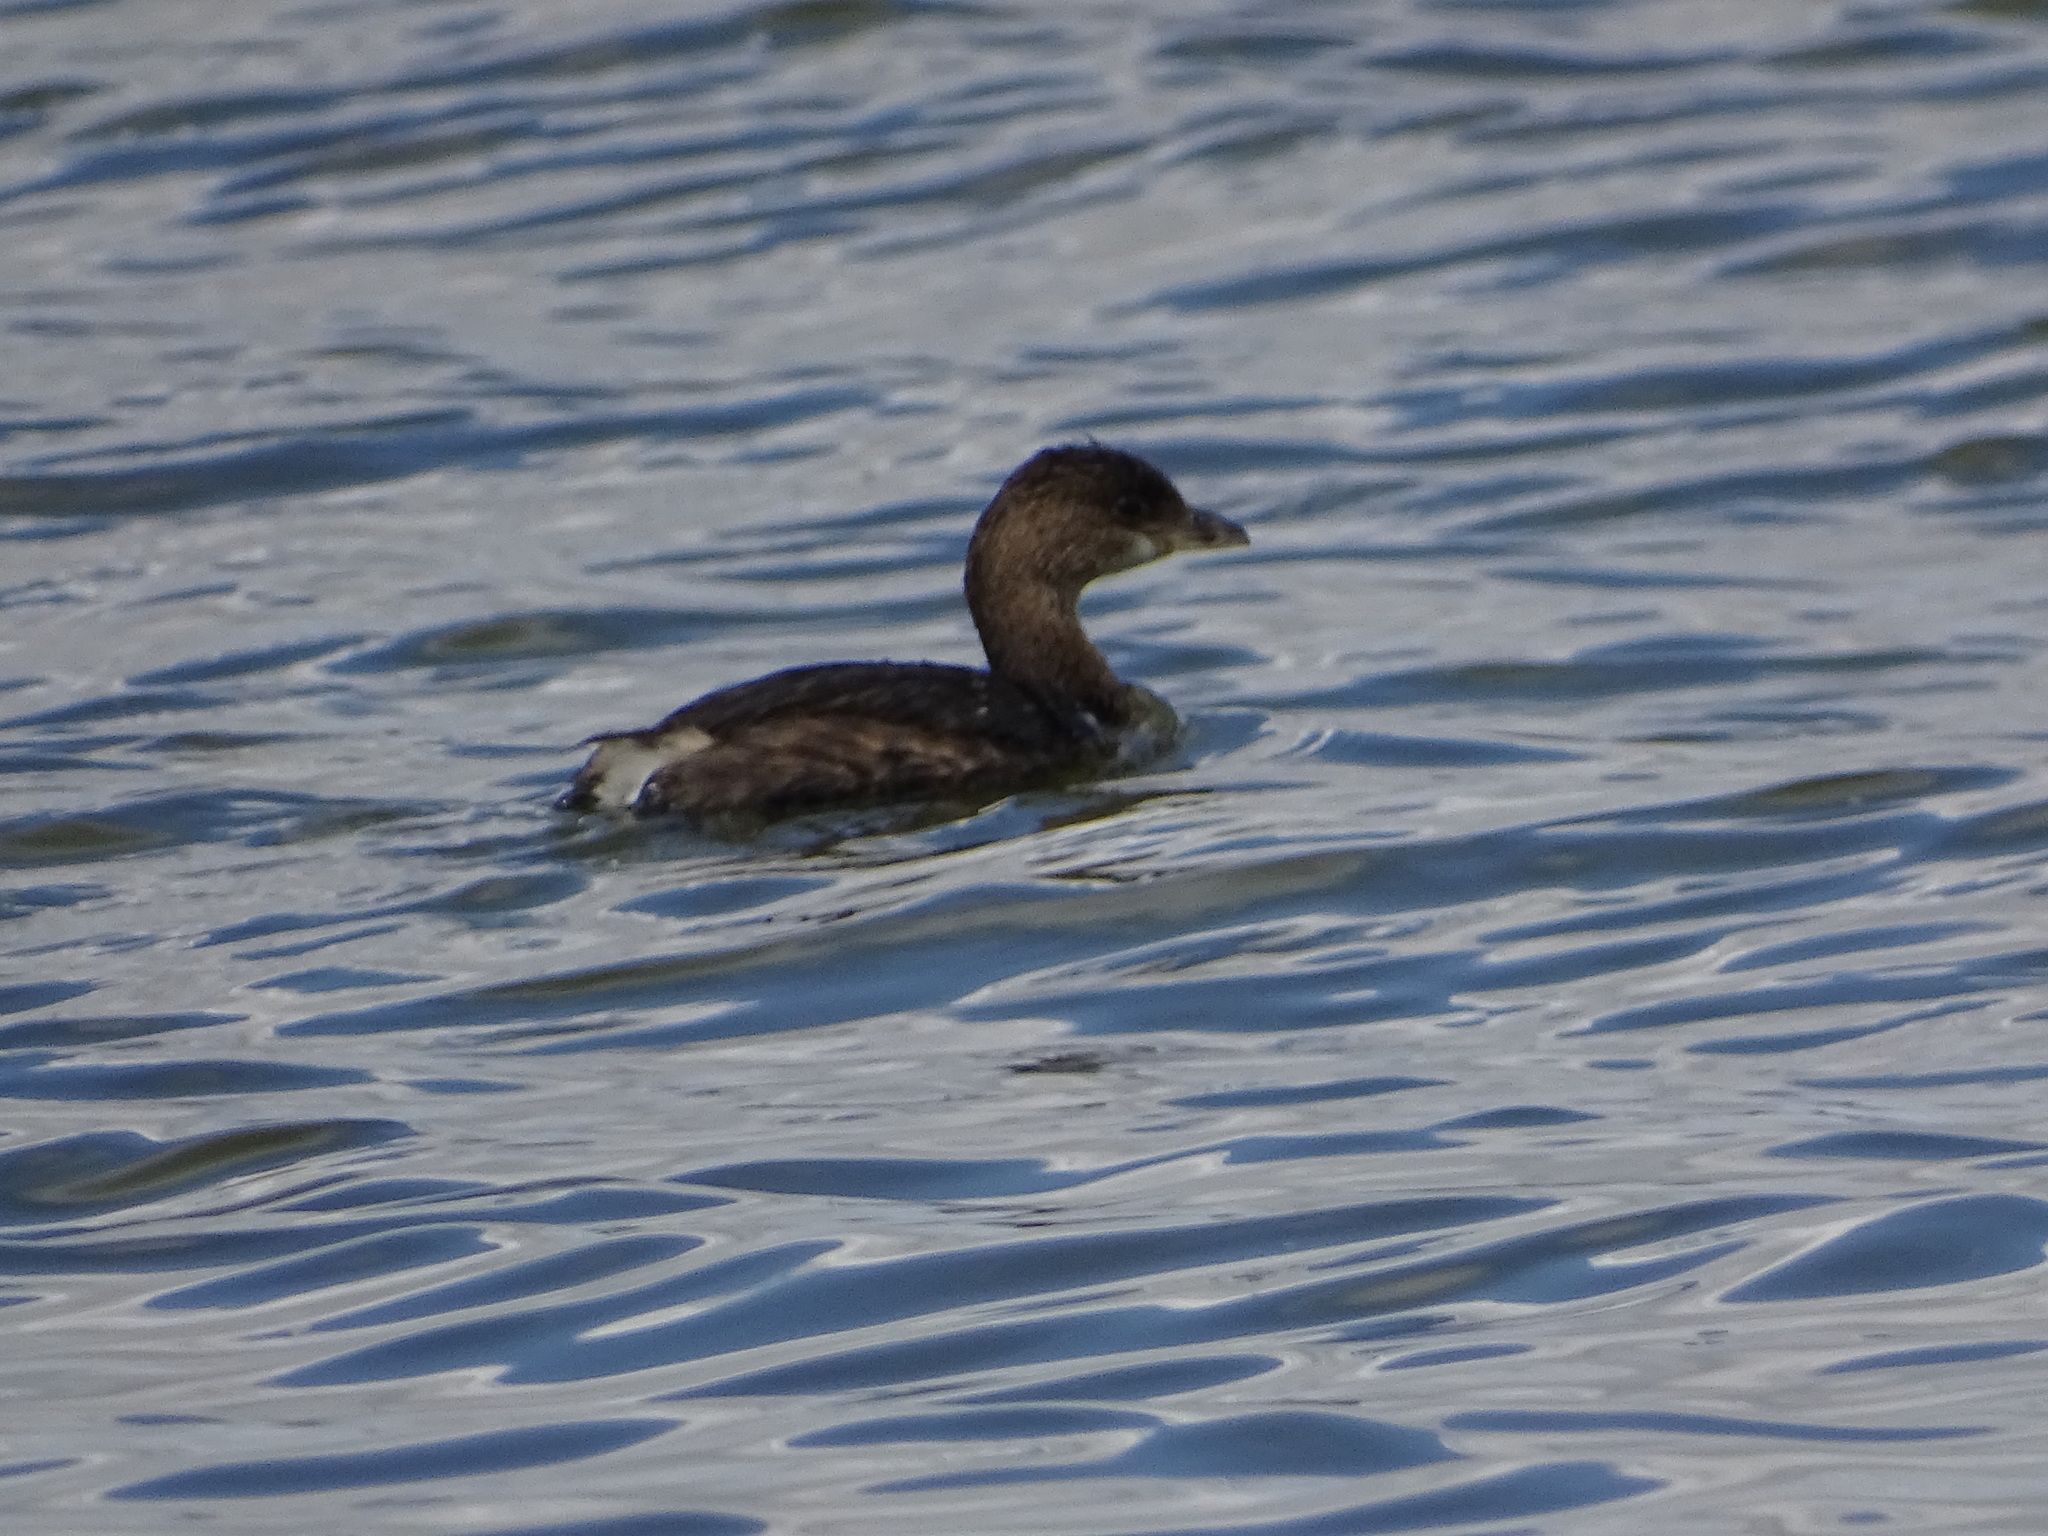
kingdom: Animalia
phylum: Chordata
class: Aves
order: Podicipediformes
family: Podicipedidae
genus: Podilymbus
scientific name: Podilymbus podiceps
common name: Pied-billed grebe
